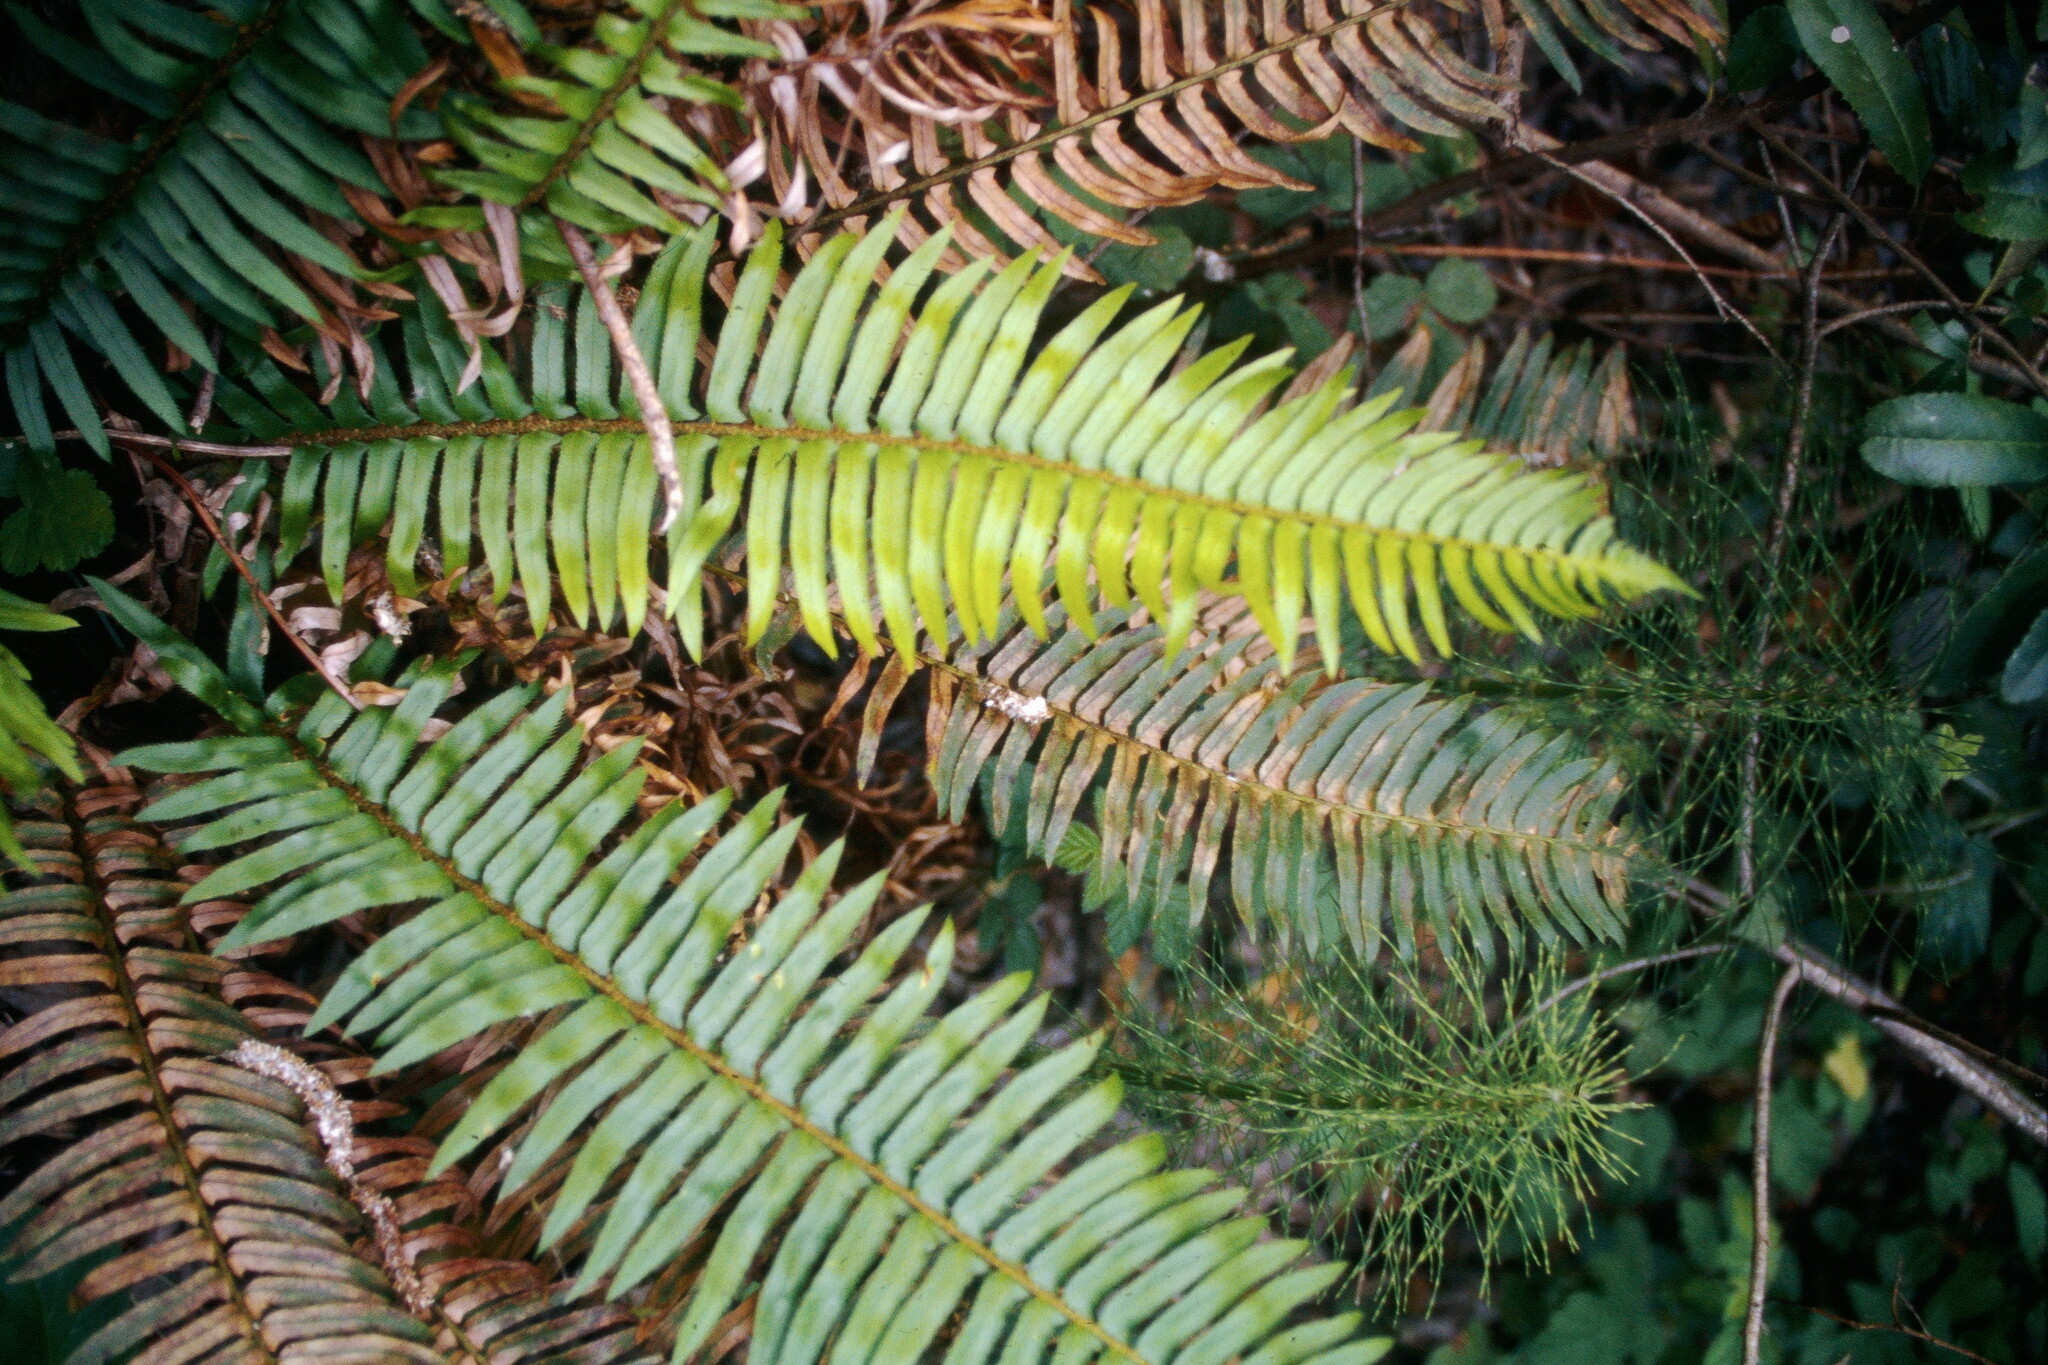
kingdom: Plantae
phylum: Tracheophyta
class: Polypodiopsida
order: Polypodiales
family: Dryopteridaceae
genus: Polystichum
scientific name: Polystichum munitum
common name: Western sword-fern
